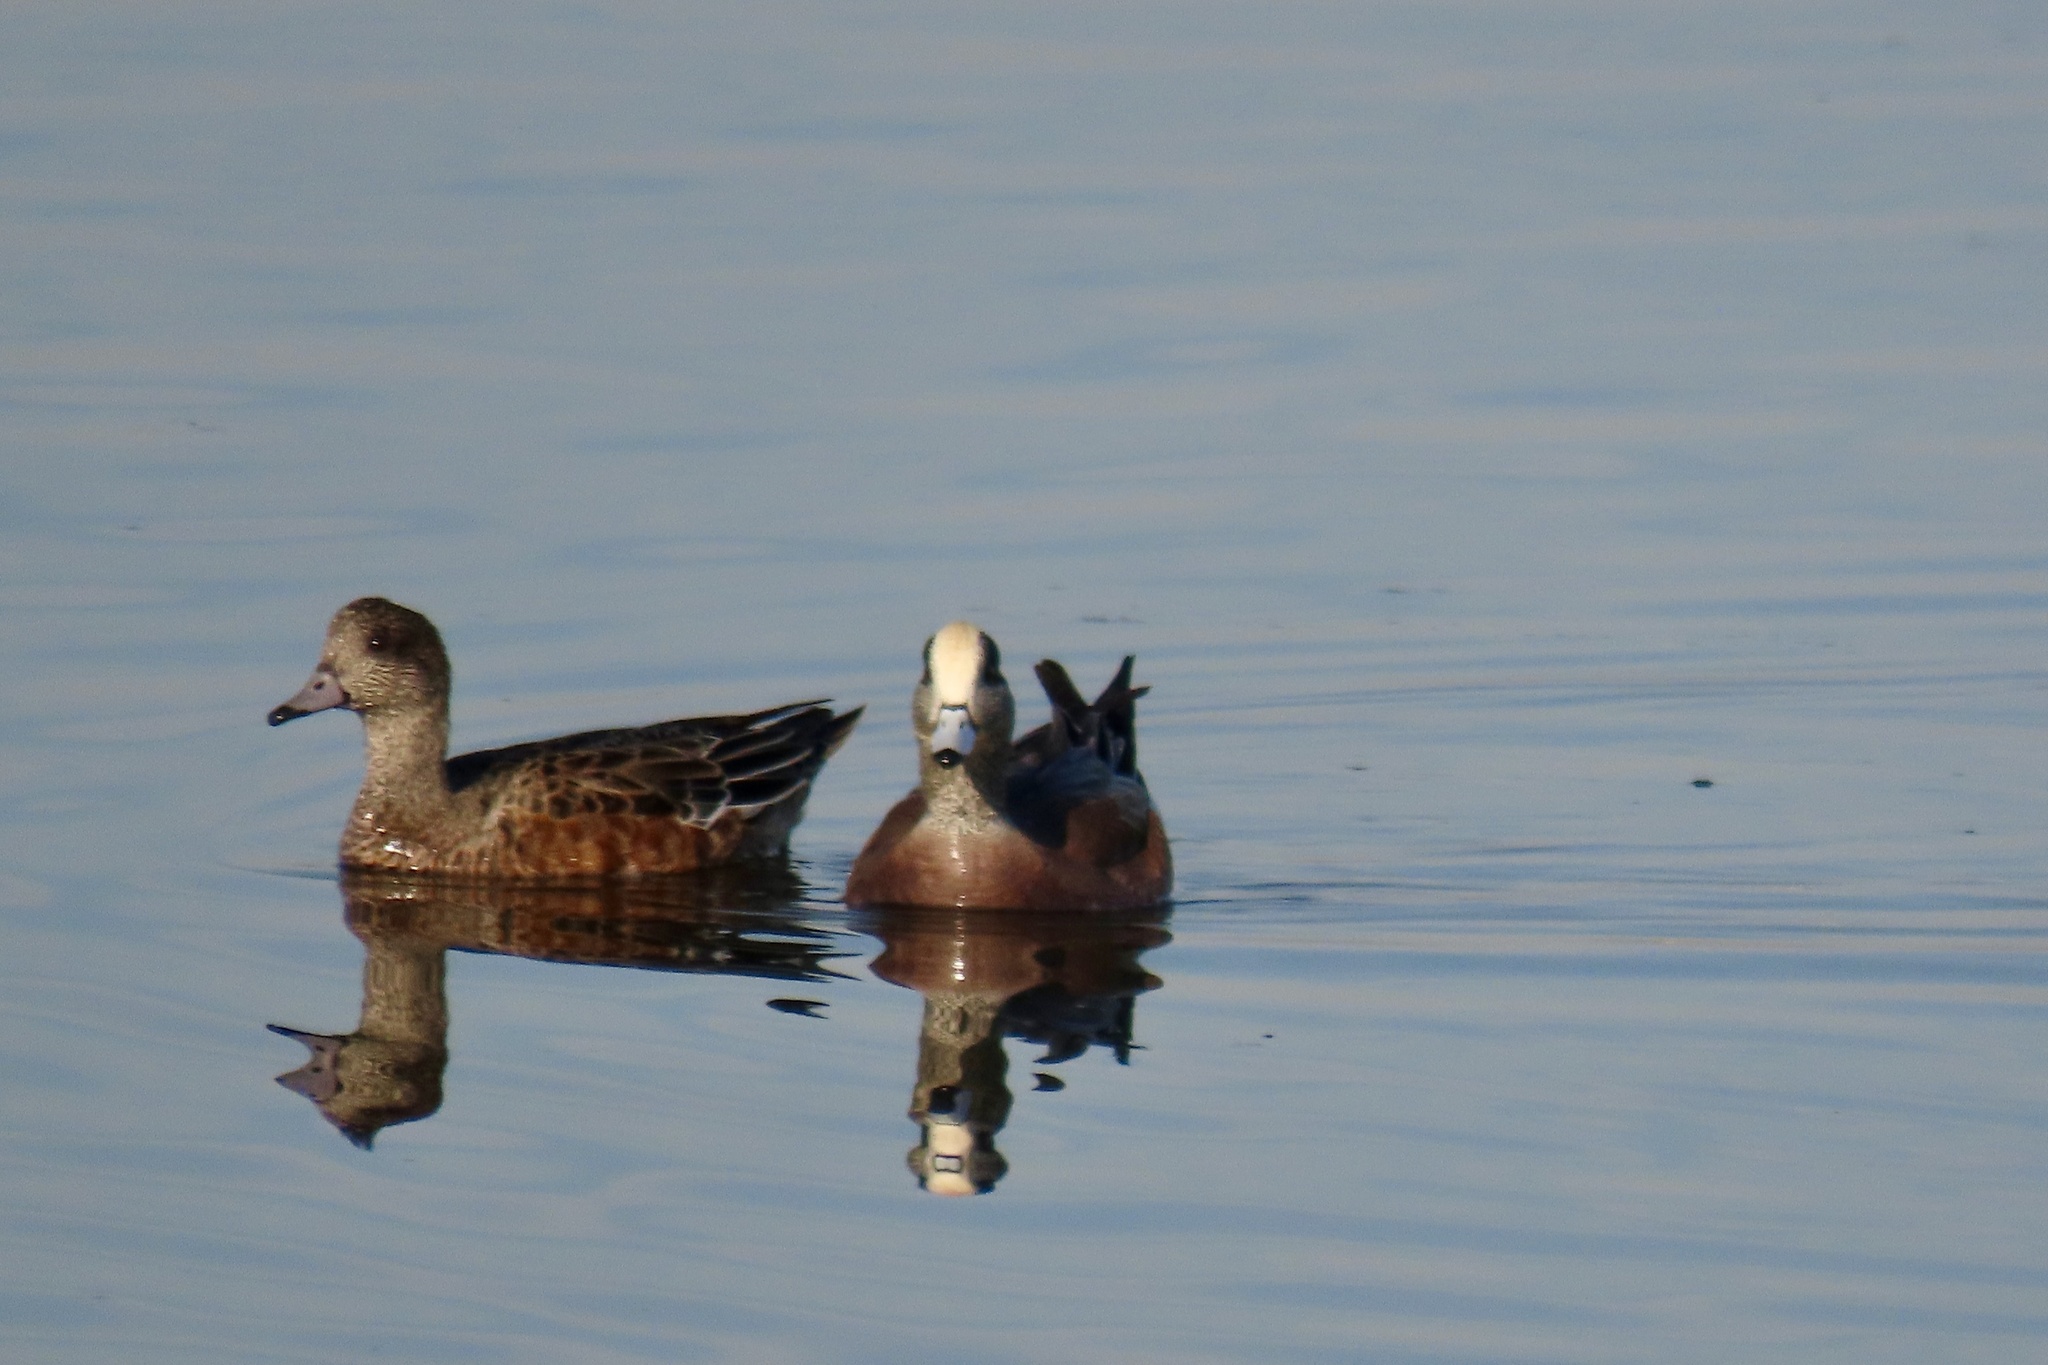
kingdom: Animalia
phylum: Chordata
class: Aves
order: Anseriformes
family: Anatidae
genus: Mareca
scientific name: Mareca americana
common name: American wigeon
